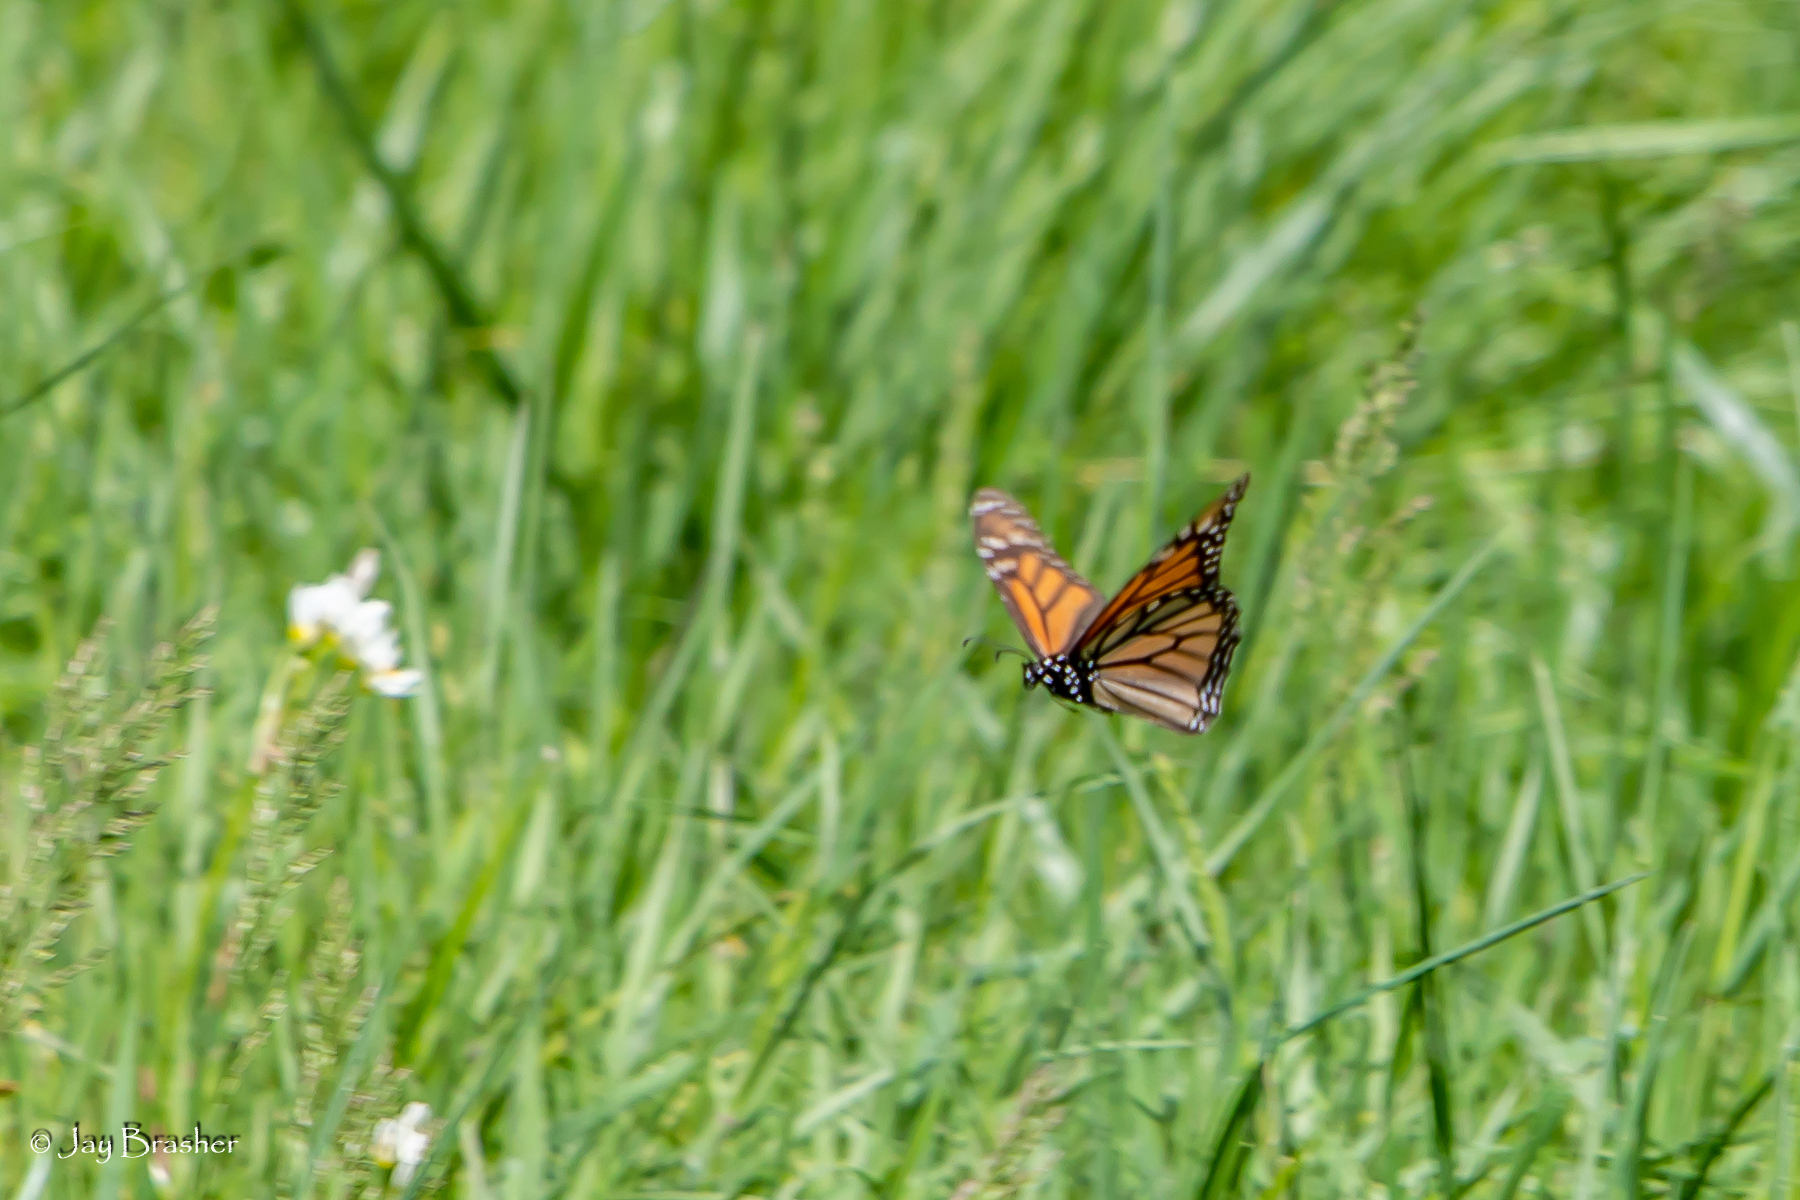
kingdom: Animalia
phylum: Arthropoda
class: Insecta
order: Lepidoptera
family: Nymphalidae
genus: Danaus
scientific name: Danaus plexippus
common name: Monarch
